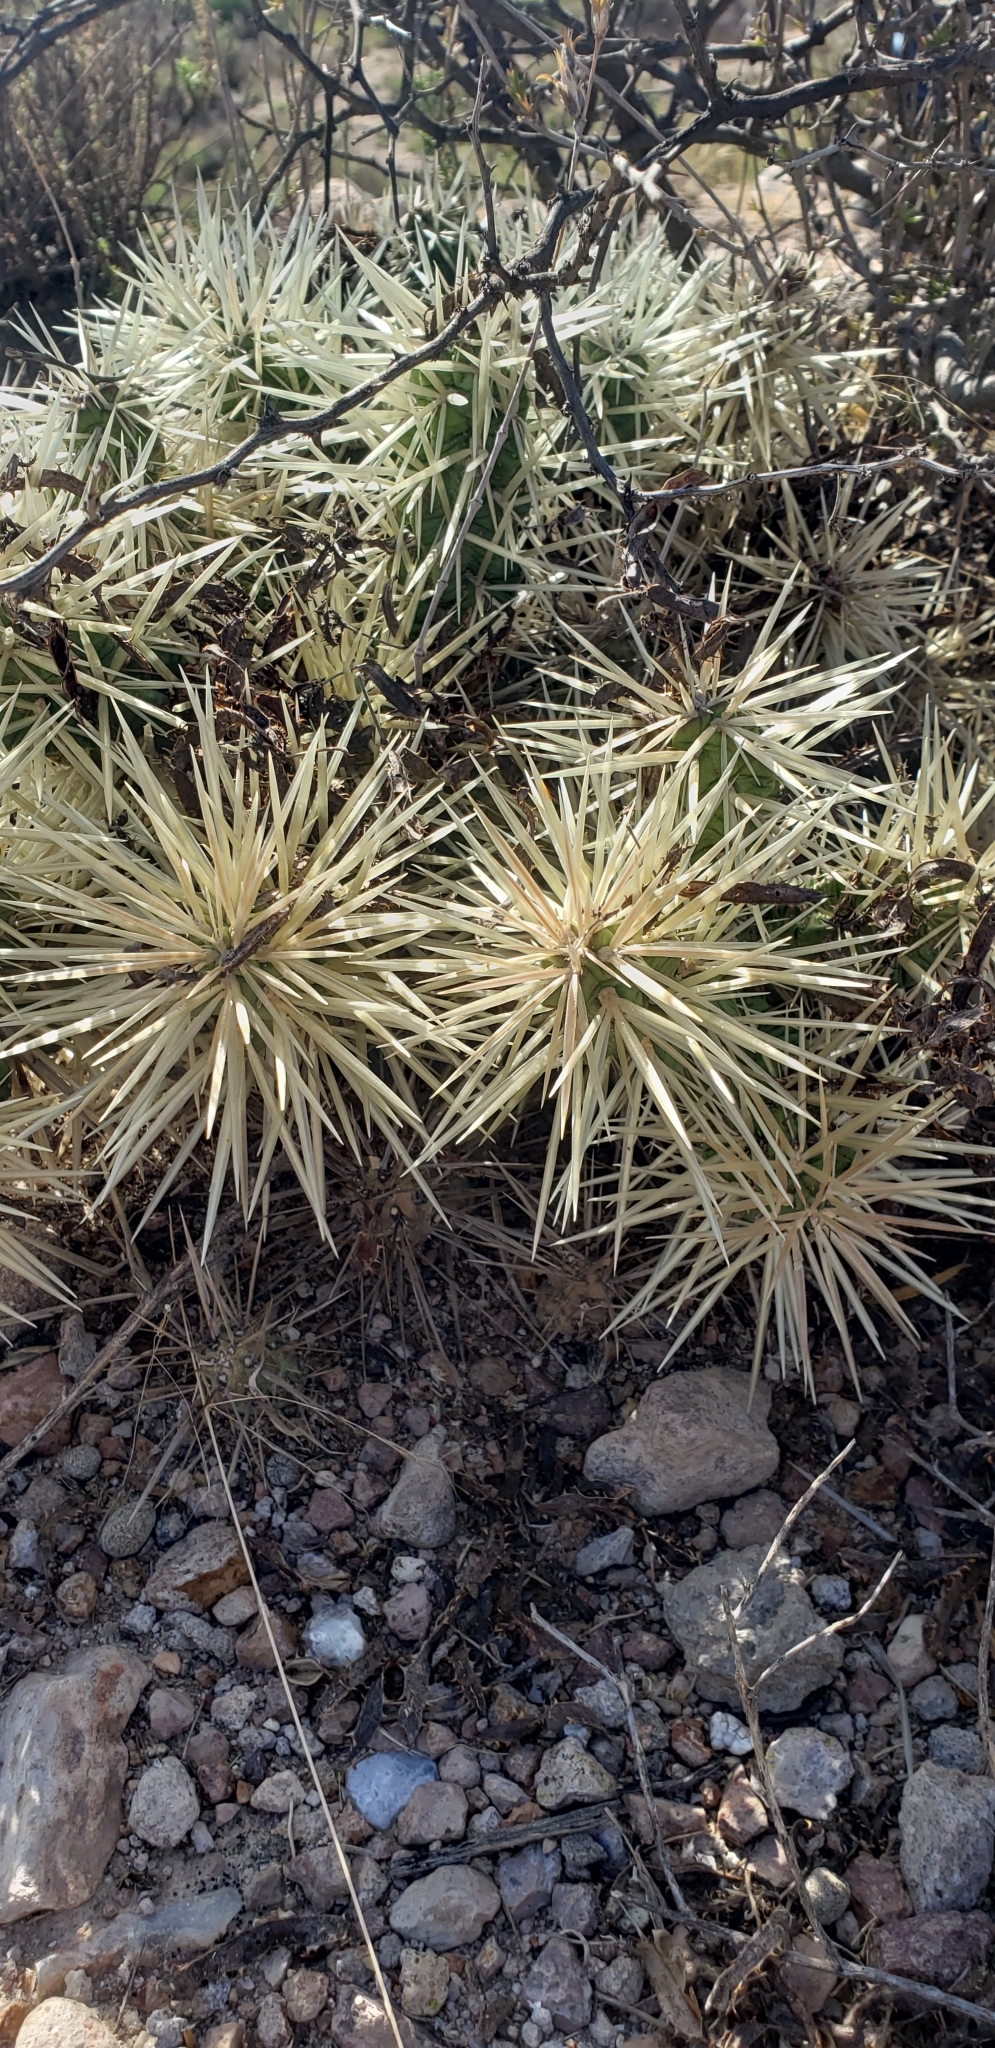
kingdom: Plantae
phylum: Tracheophyta
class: Magnoliopsida
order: Caryophyllales
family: Cactaceae
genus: Cylindropuntia
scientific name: Cylindropuntia tunicata
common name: Sheathed cholla
